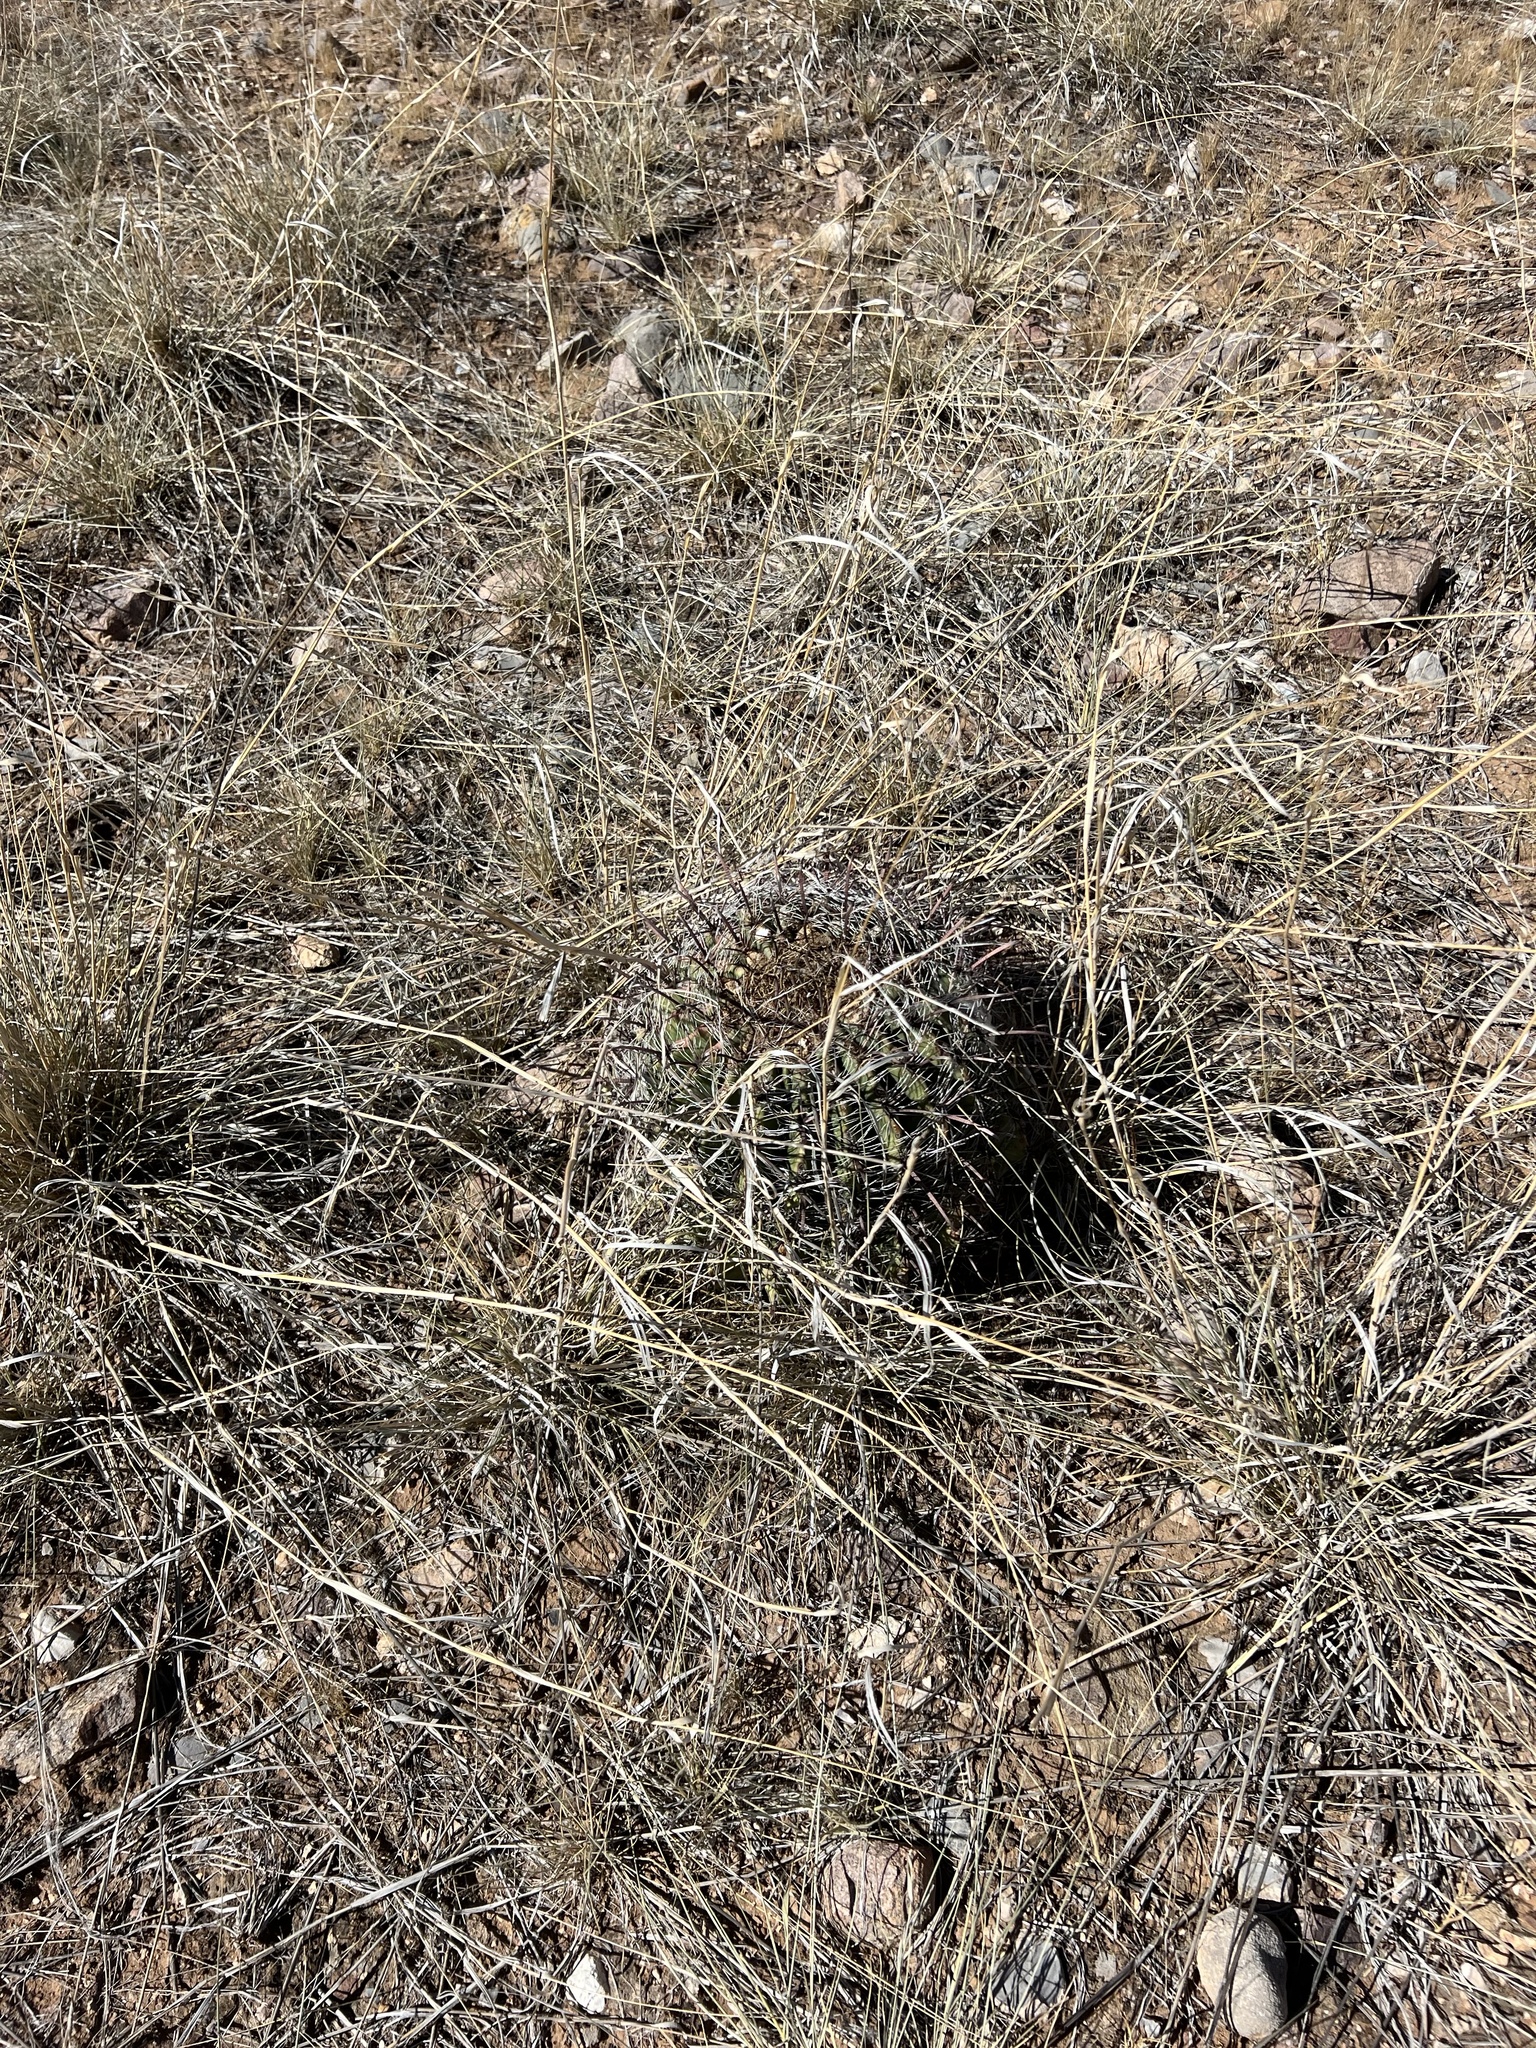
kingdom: Plantae
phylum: Tracheophyta
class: Magnoliopsida
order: Caryophyllales
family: Cactaceae
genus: Ferocactus
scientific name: Ferocactus wislizeni
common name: Candy barrel cactus
